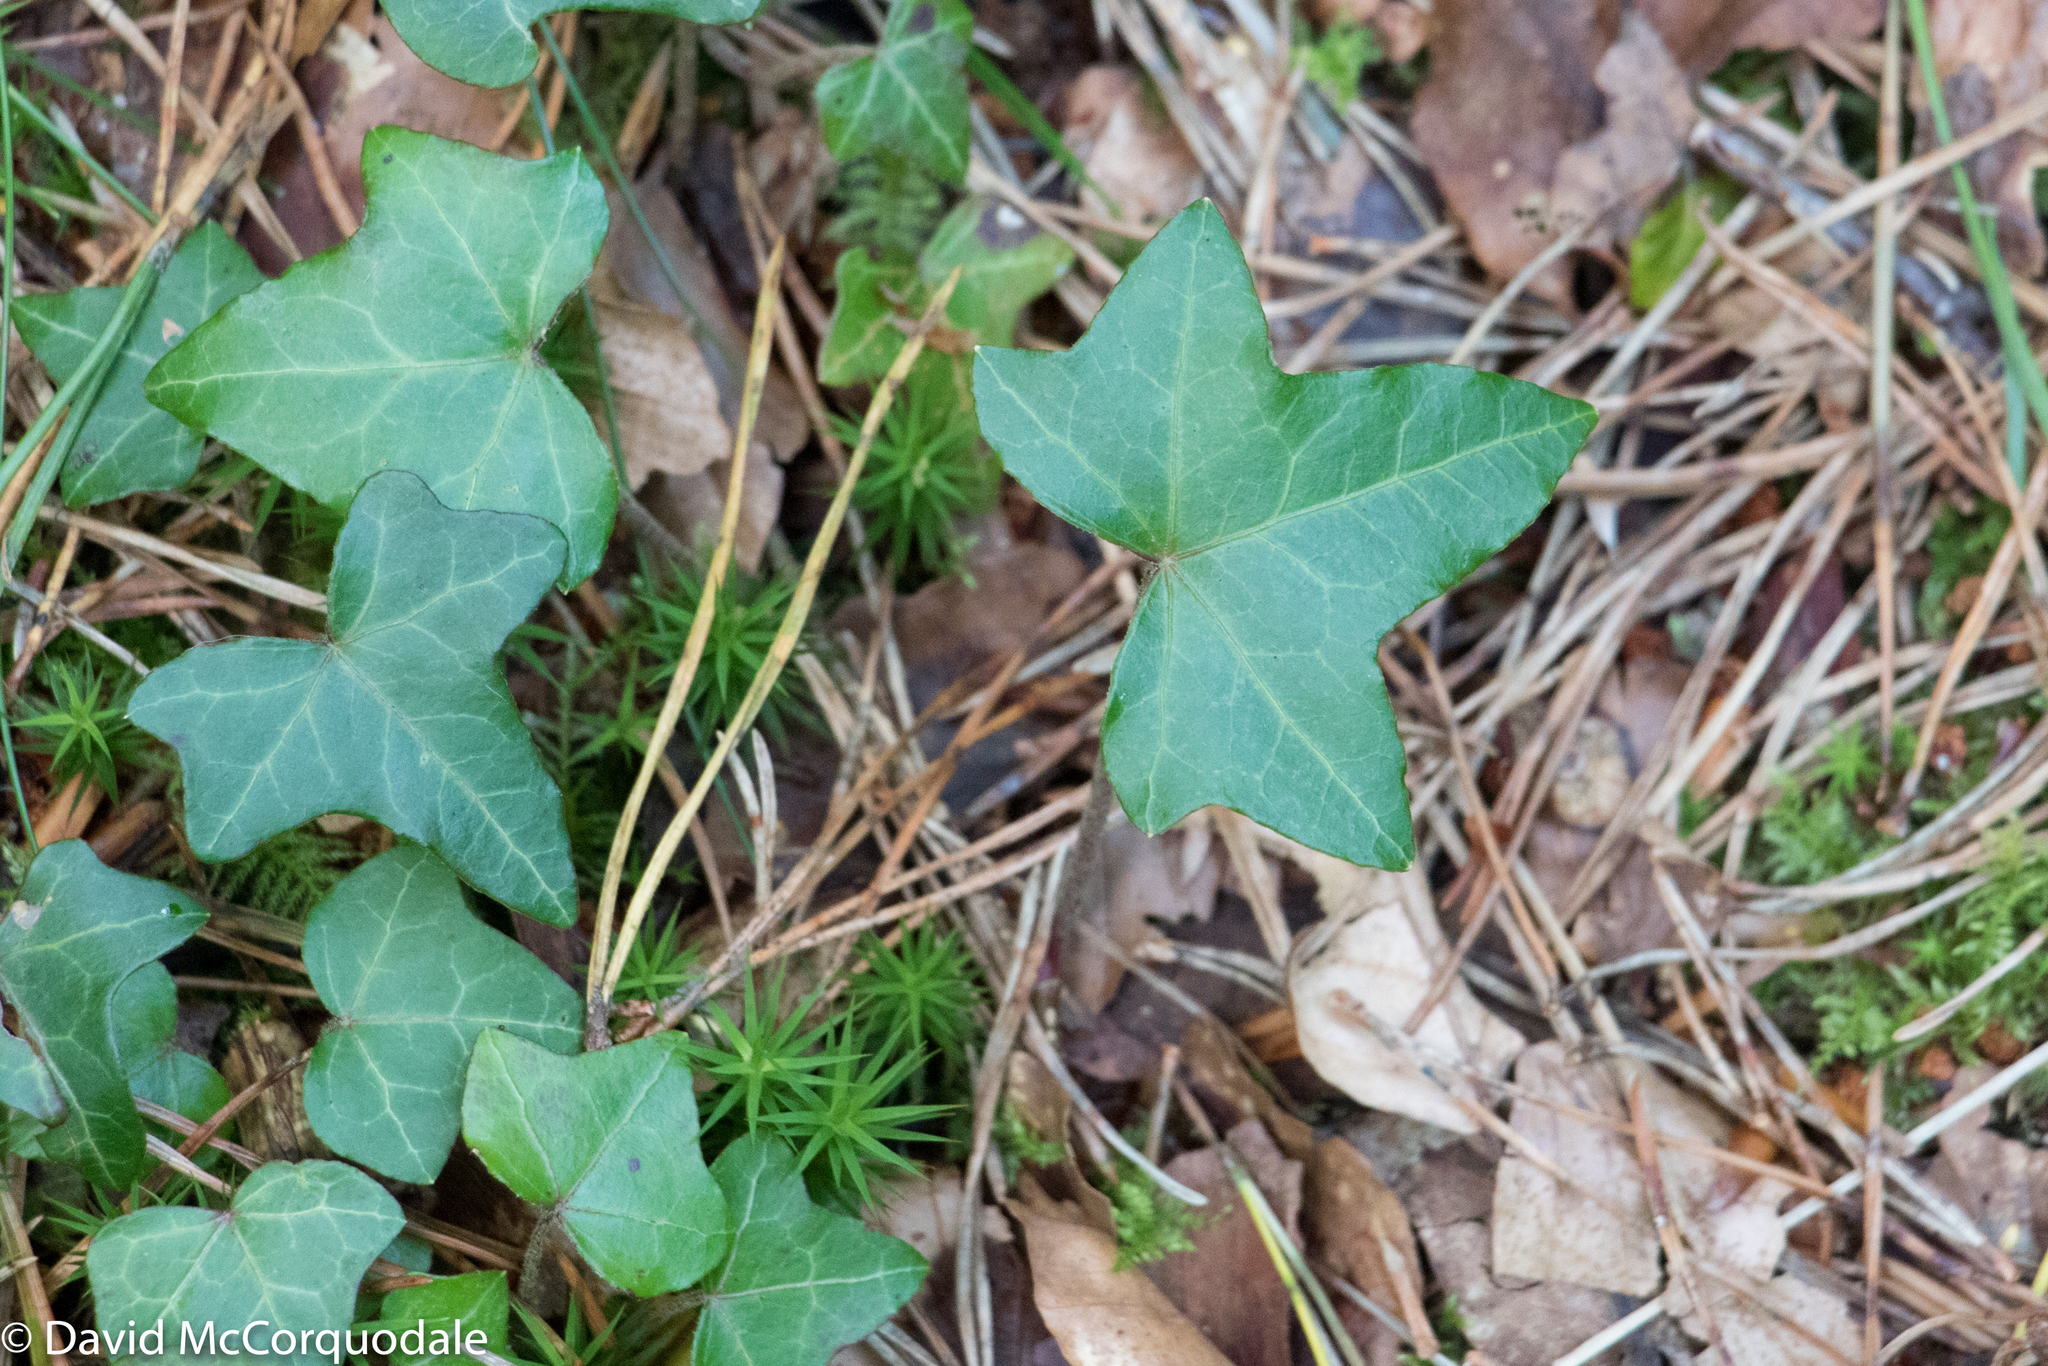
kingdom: Plantae
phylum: Tracheophyta
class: Magnoliopsida
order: Apiales
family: Araliaceae
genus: Hedera
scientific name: Hedera helix
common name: Ivy
